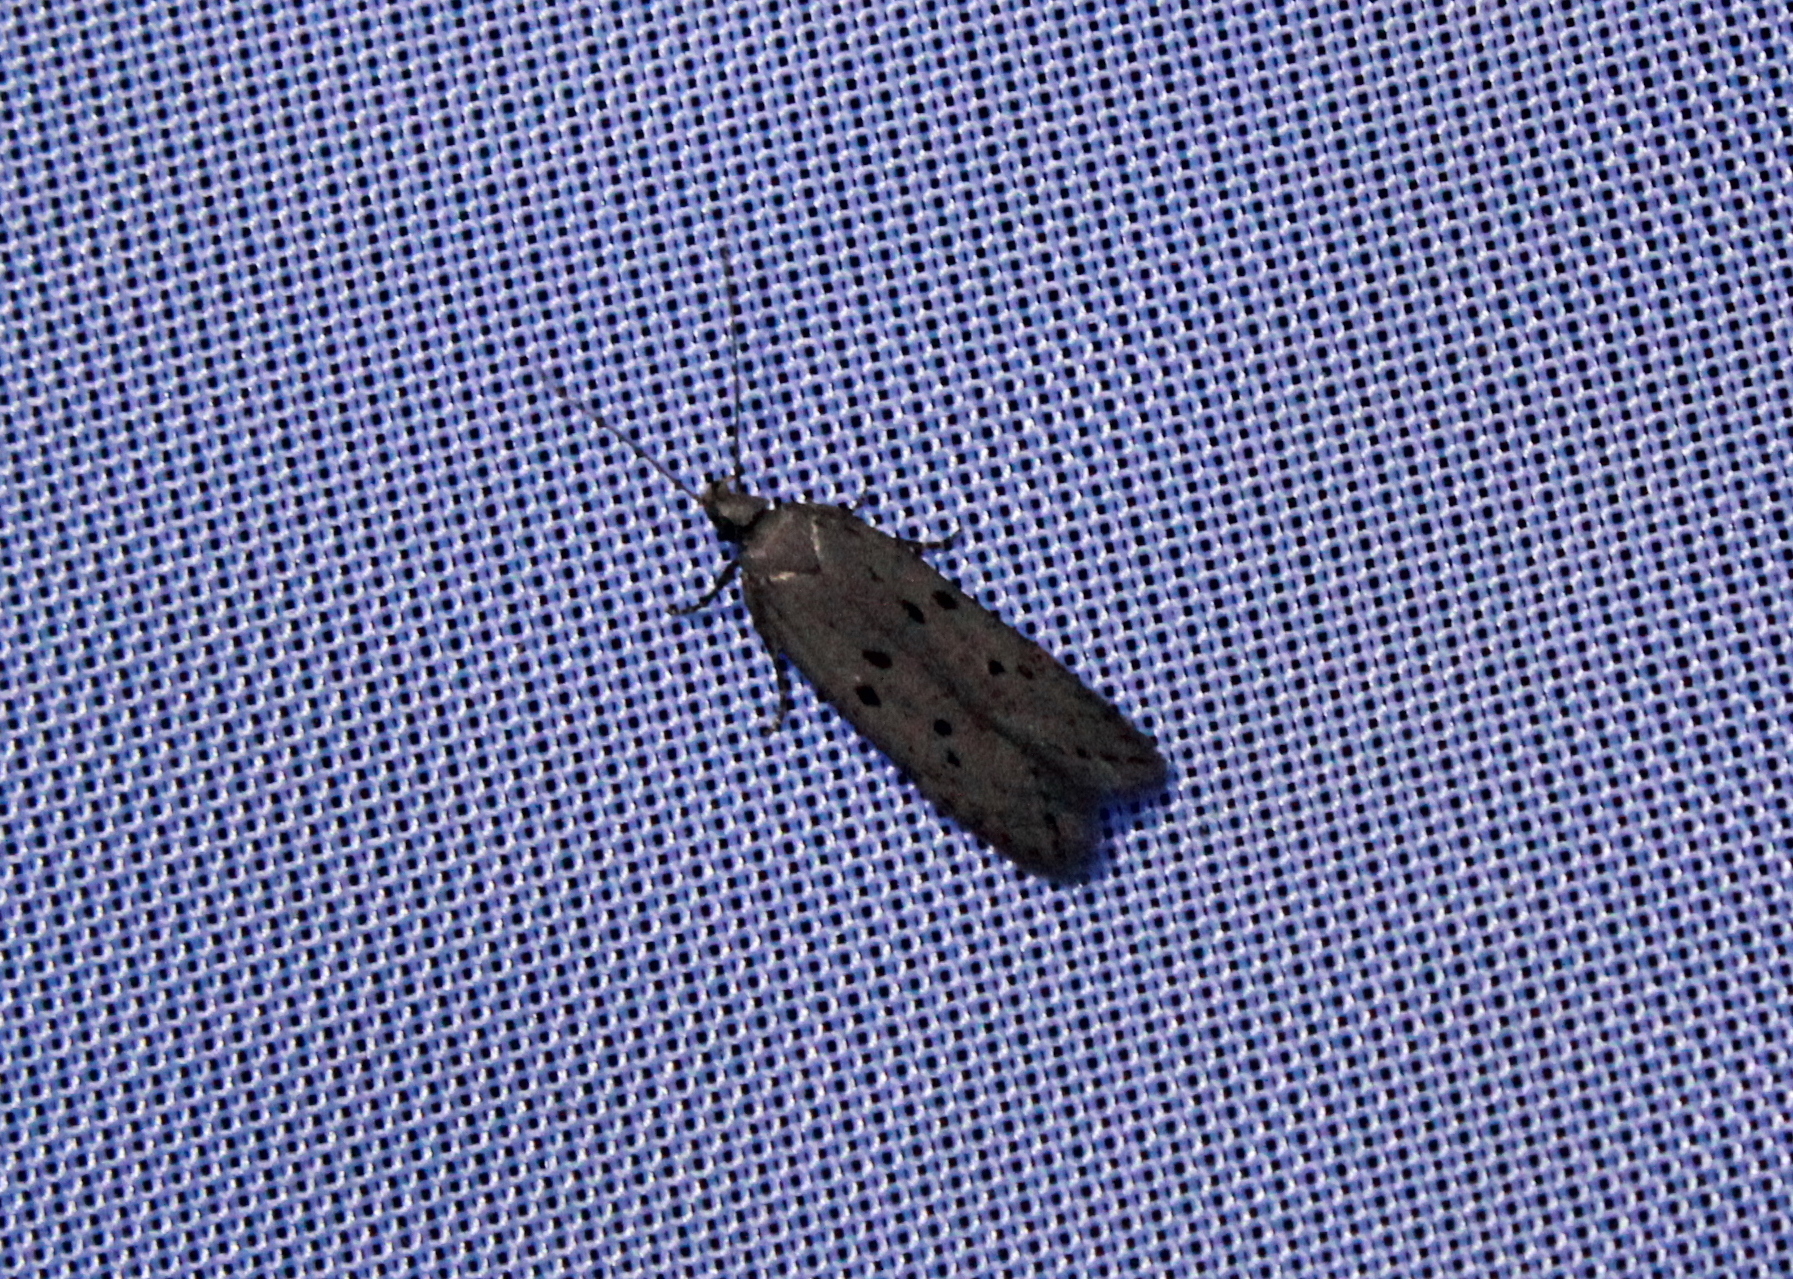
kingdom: Animalia
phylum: Arthropoda
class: Insecta
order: Lepidoptera
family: Gelechiidae
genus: Athrips
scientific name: Athrips mouffetella
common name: Dotted grey groundling
